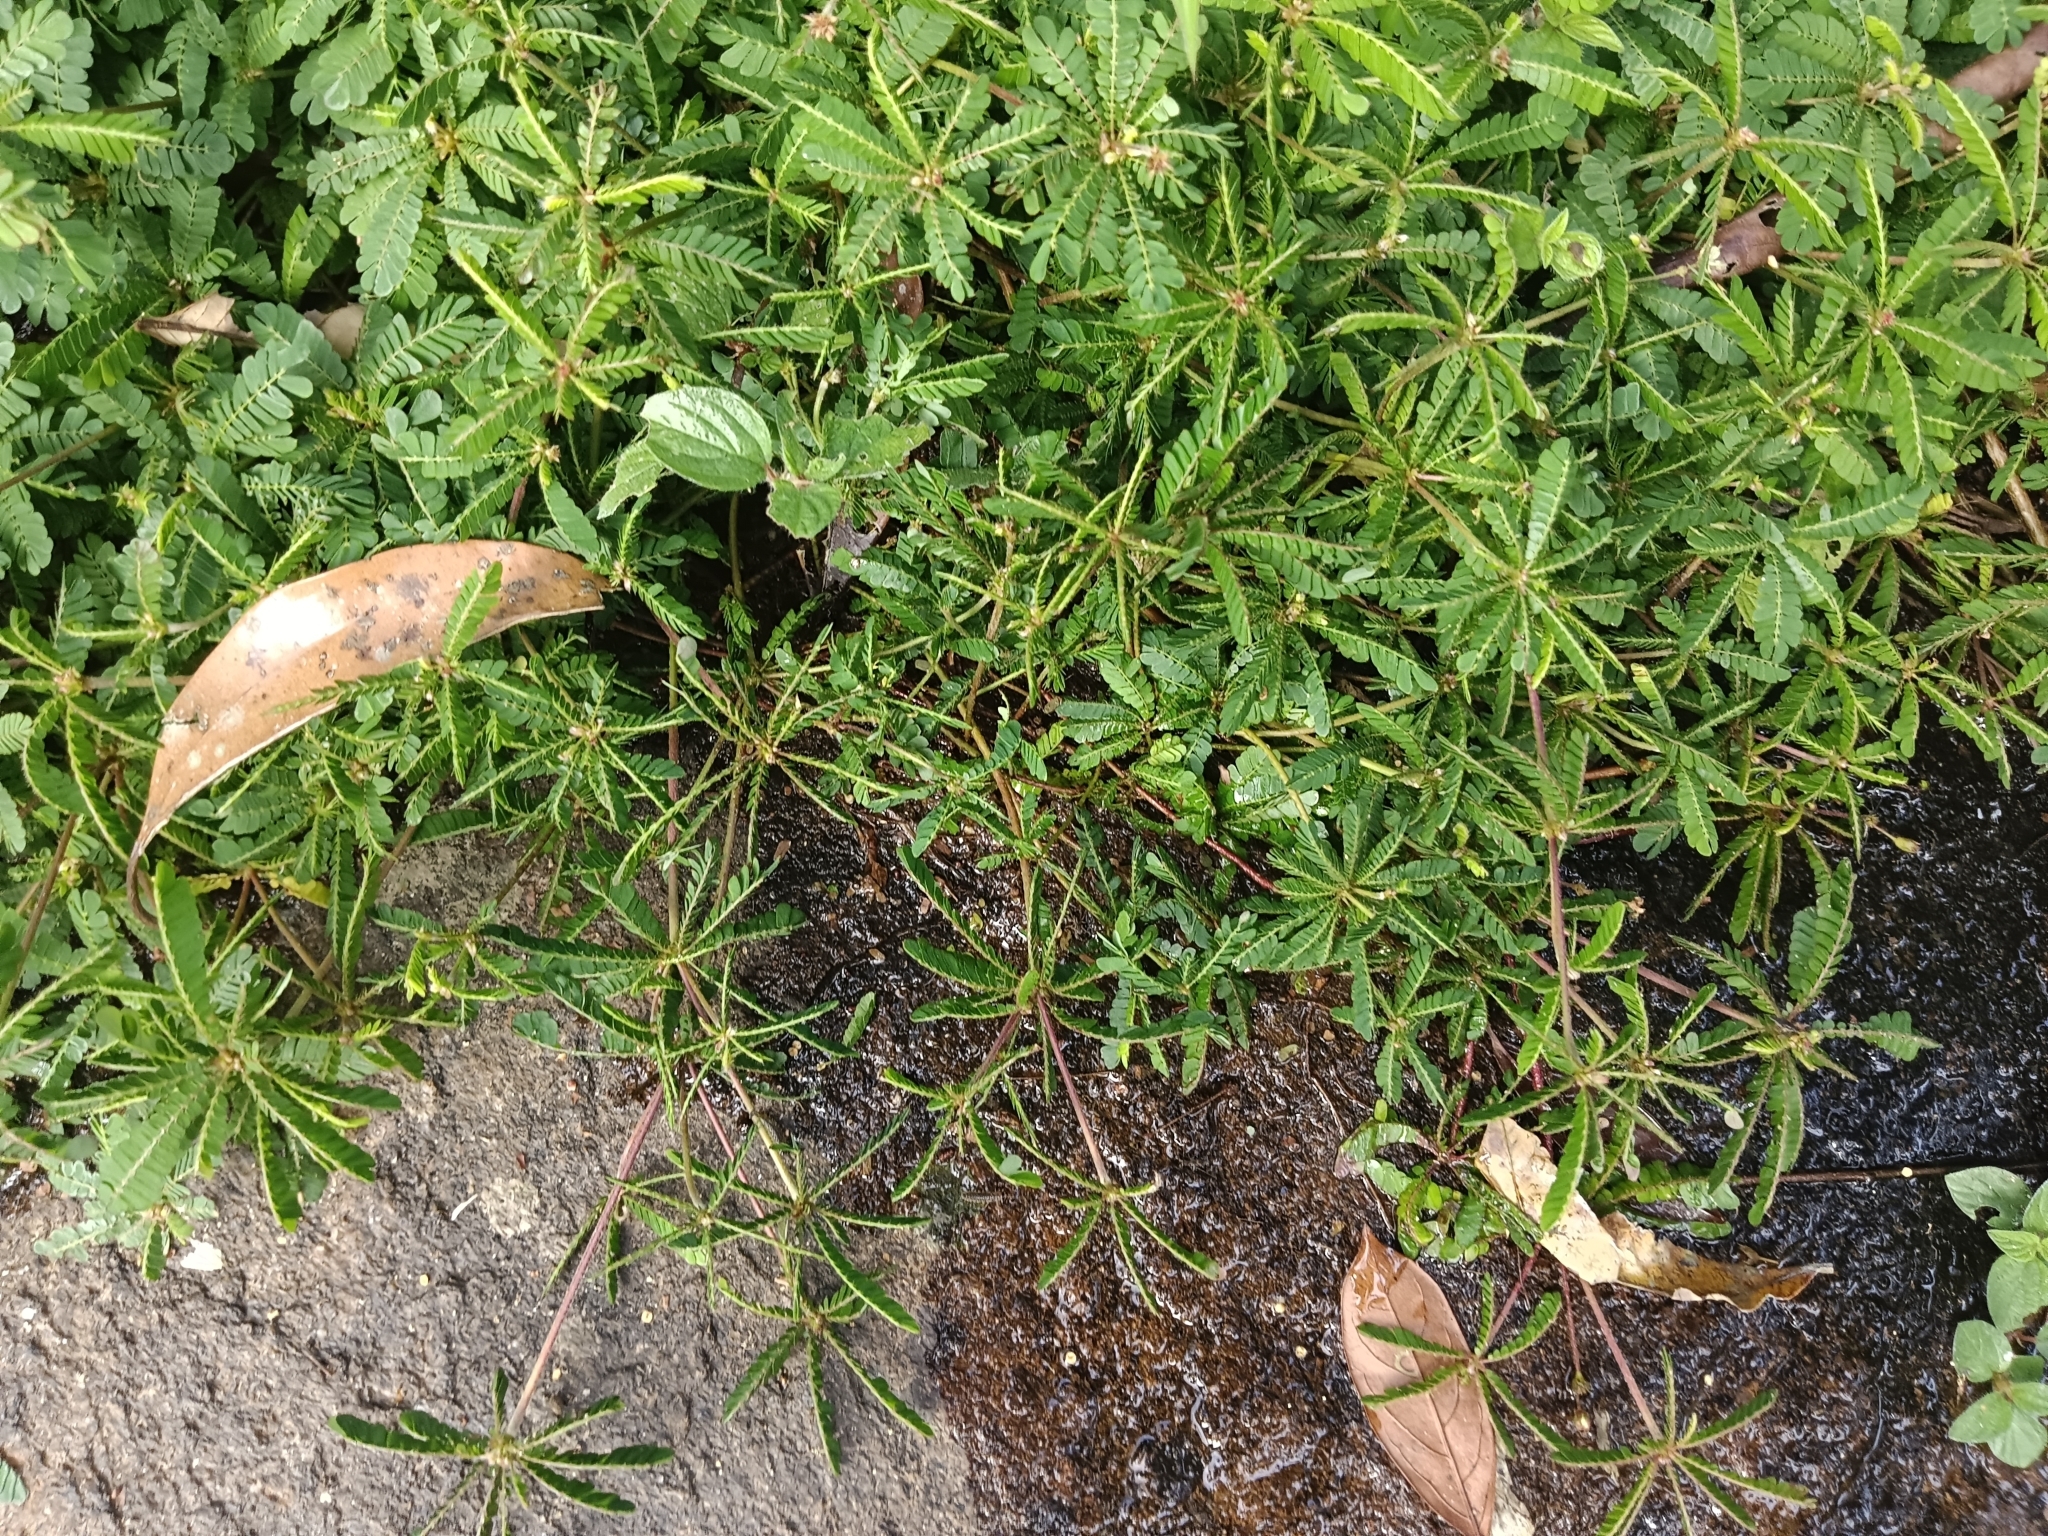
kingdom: Plantae
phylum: Tracheophyta
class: Magnoliopsida
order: Oxalidales
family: Oxalidaceae
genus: Biophytum
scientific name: Biophytum sensitivum
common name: Lifeplant
